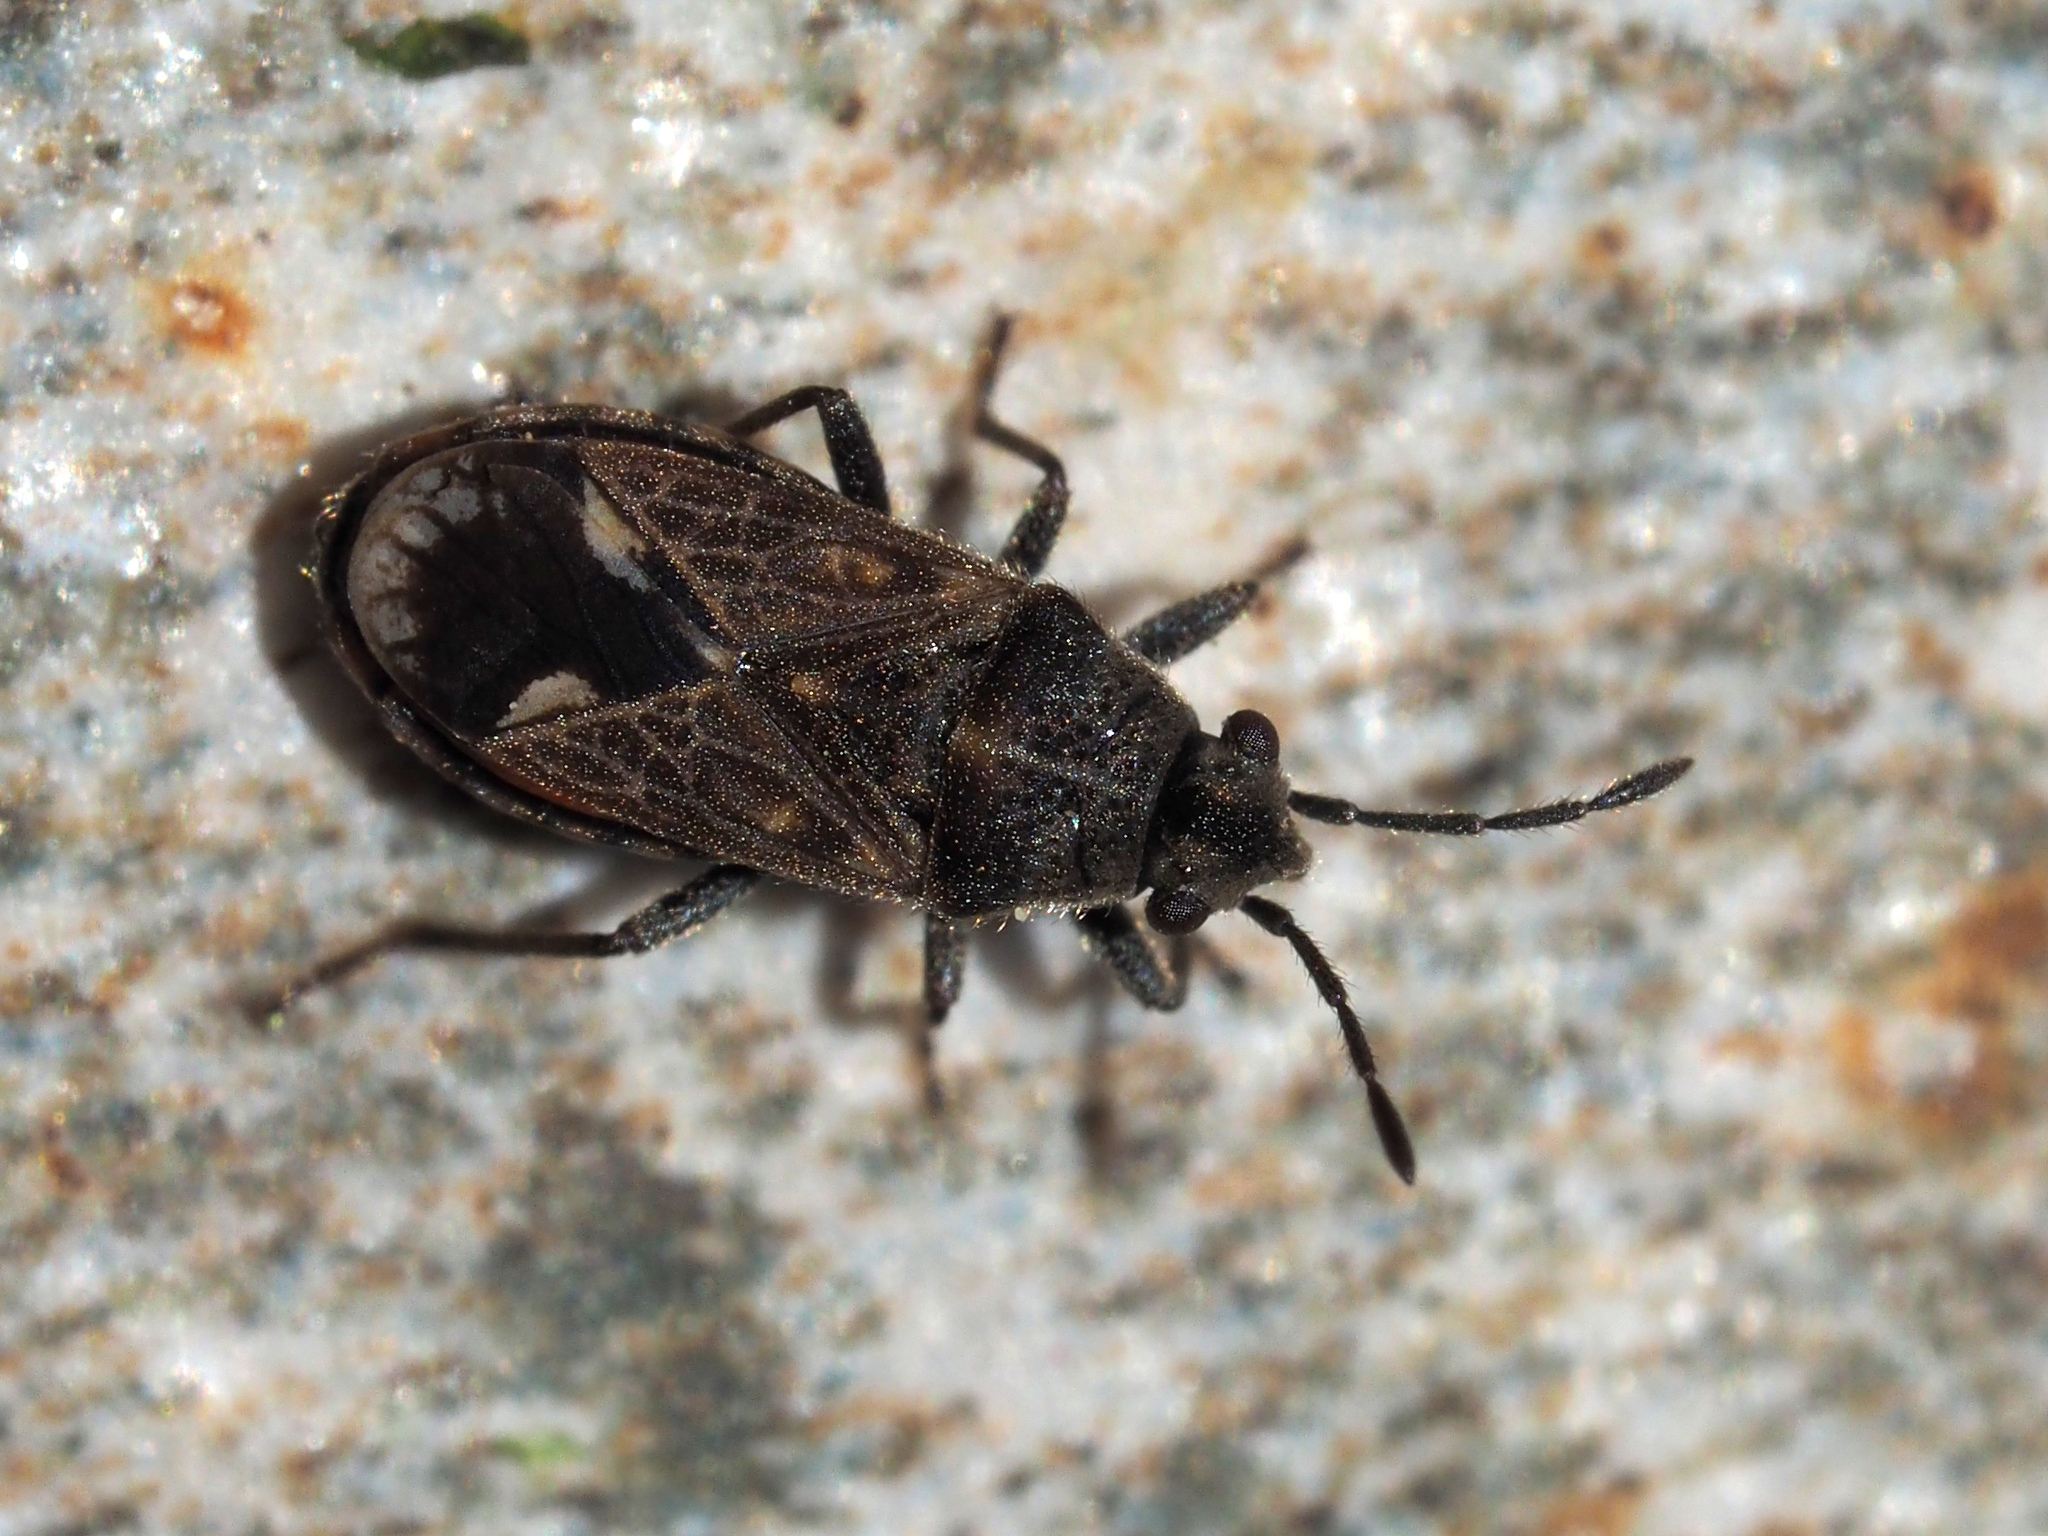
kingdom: Animalia
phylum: Arthropoda
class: Insecta
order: Hemiptera
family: Lygaeidae
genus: Lygaeosoma
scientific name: Lygaeosoma sardeum
